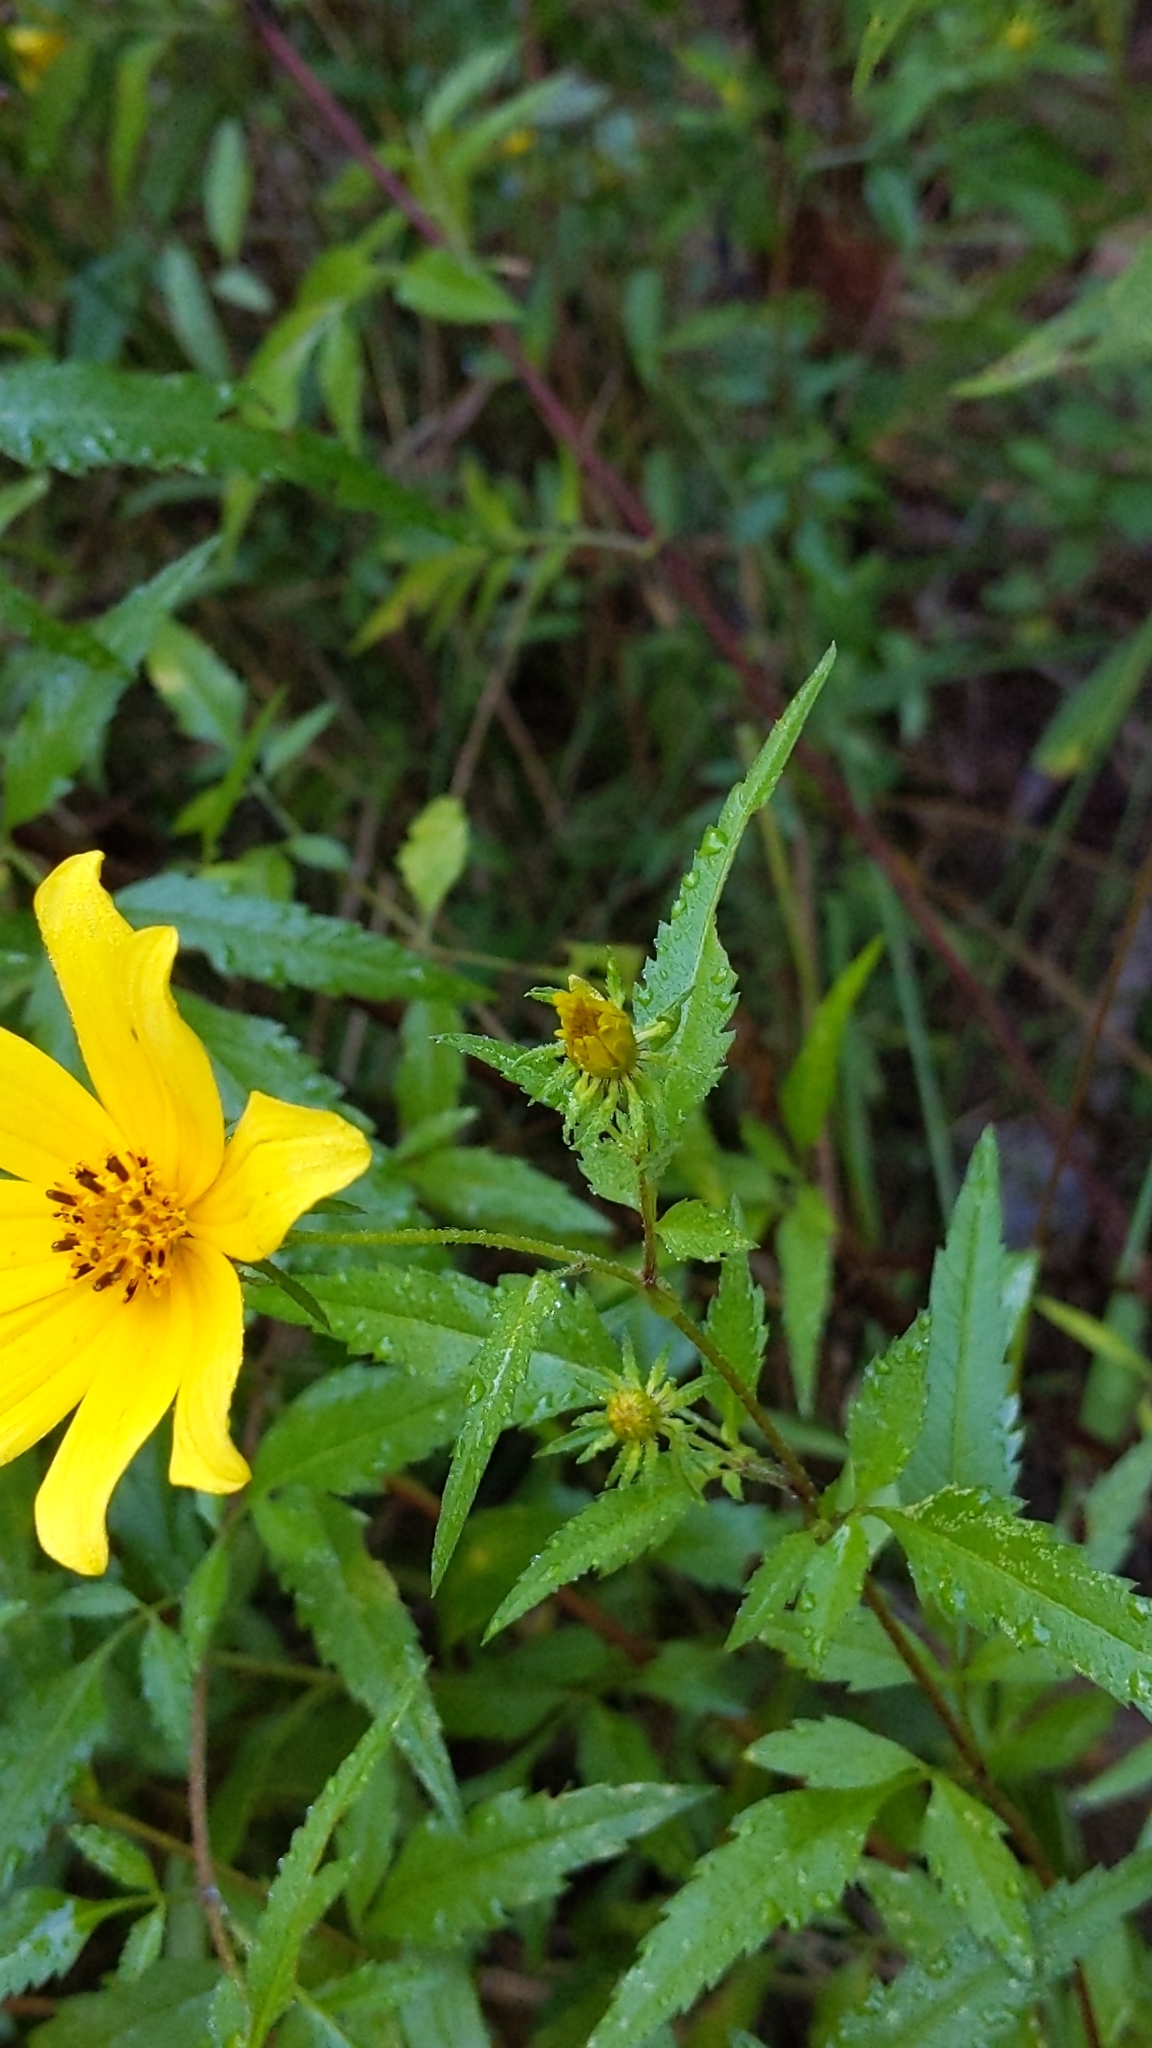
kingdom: Plantae
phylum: Tracheophyta
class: Magnoliopsida
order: Asterales
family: Asteraceae
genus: Bidens
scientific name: Bidens aristosa
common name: Western tickseed
